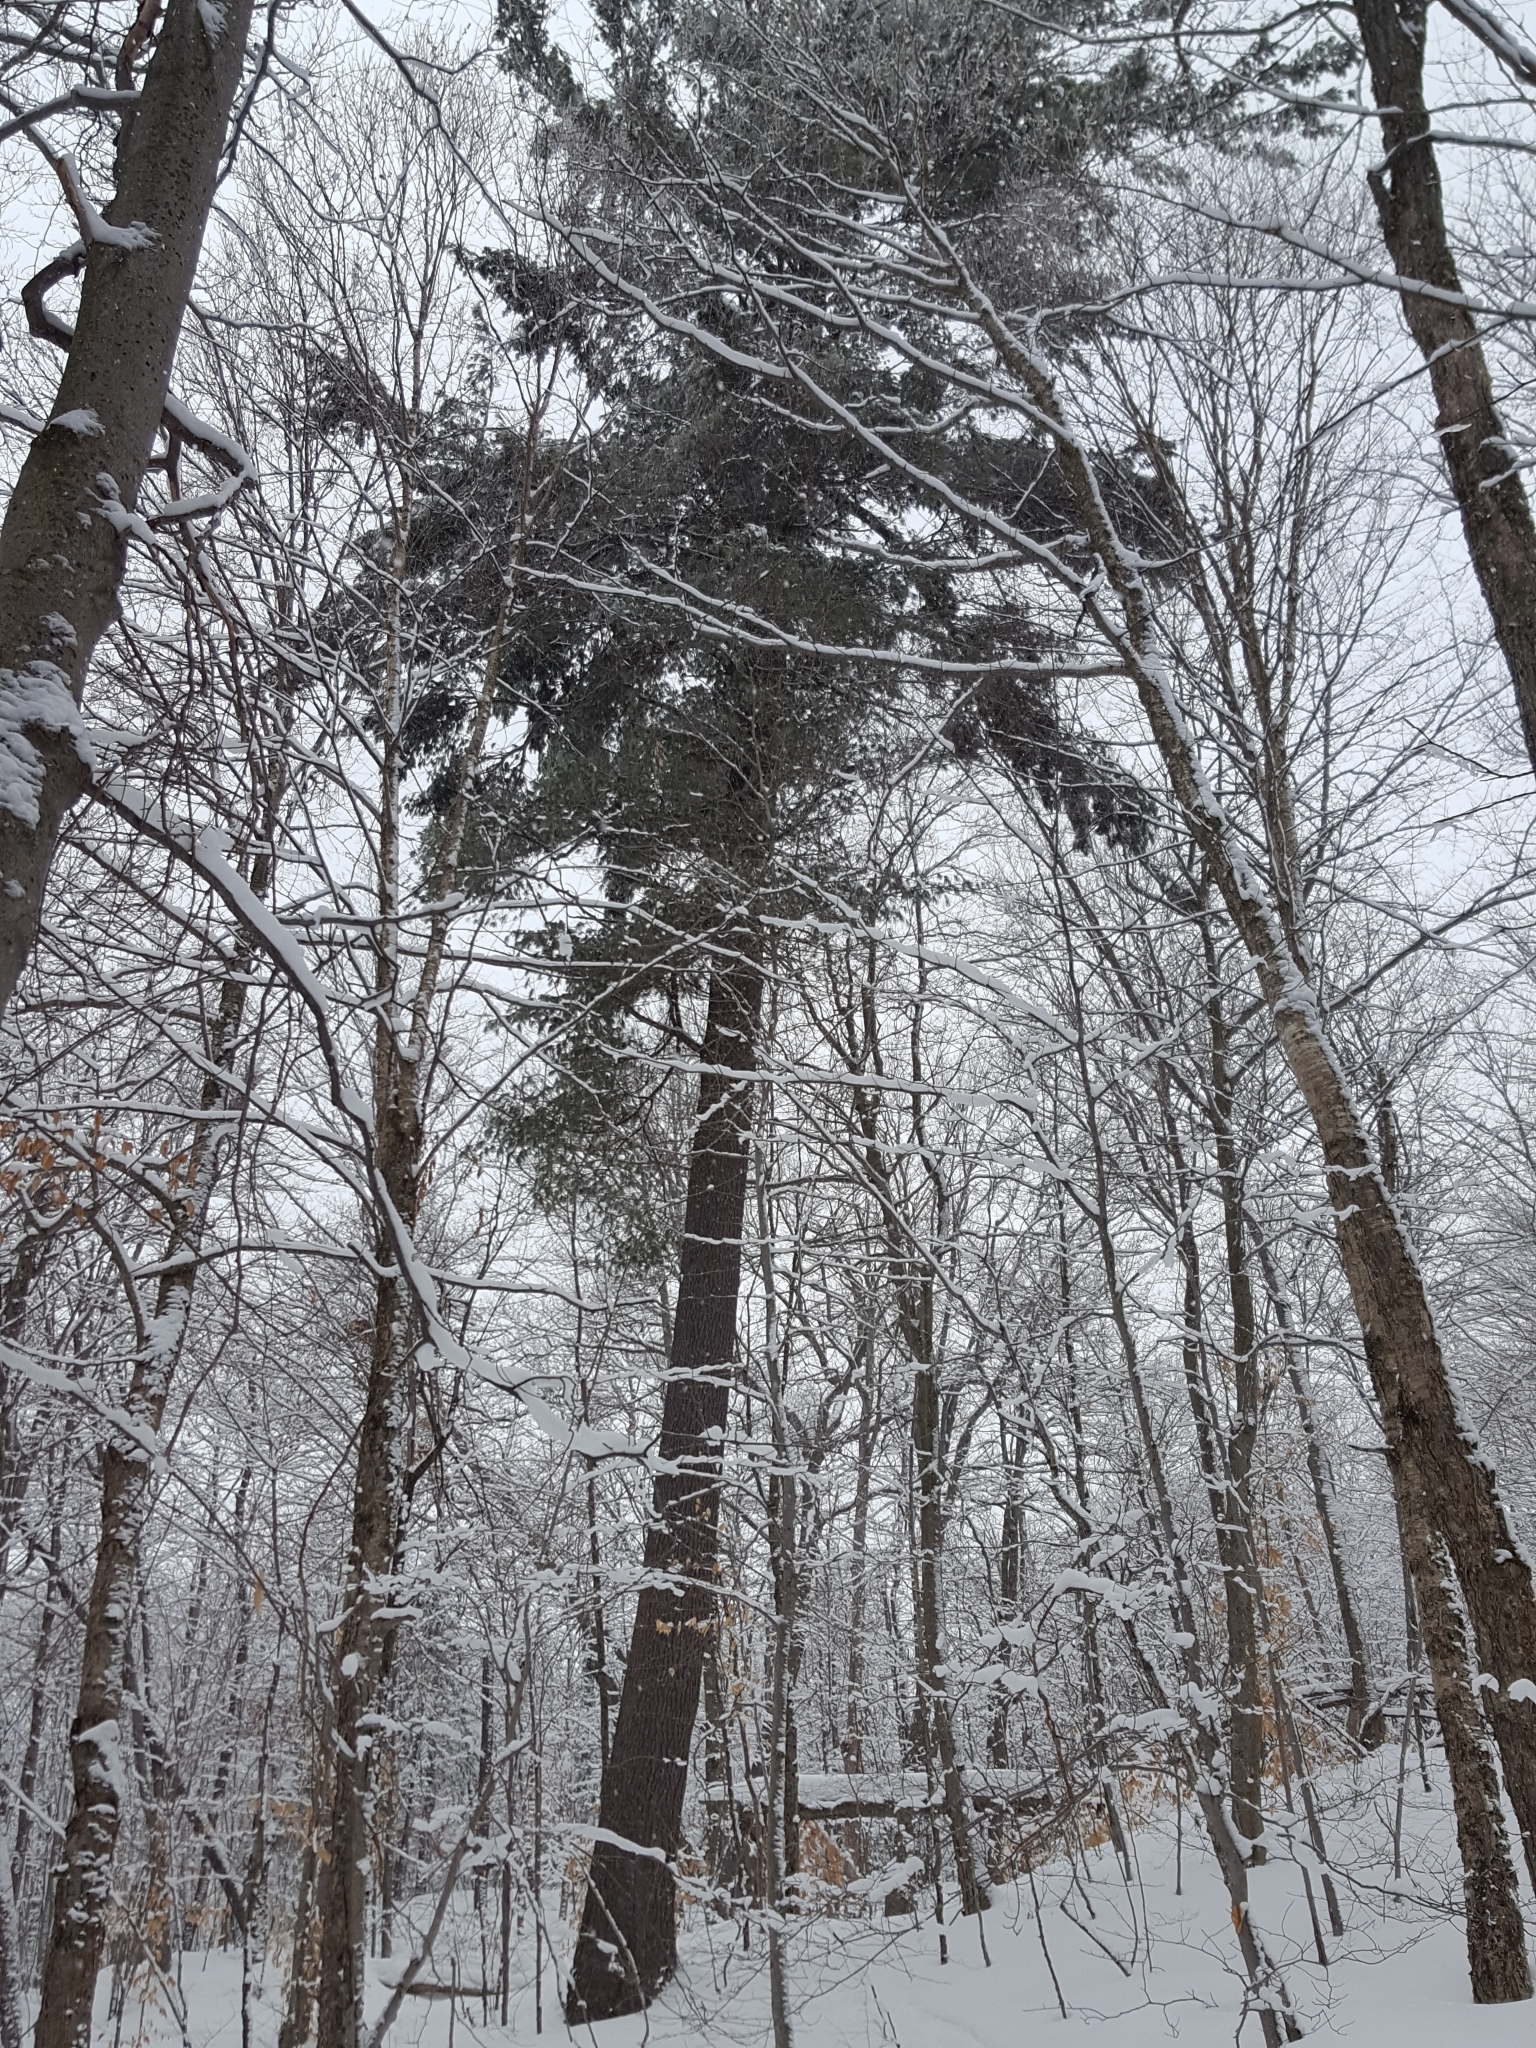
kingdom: Plantae
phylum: Tracheophyta
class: Pinopsida
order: Pinales
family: Pinaceae
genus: Pinus
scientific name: Pinus strobus
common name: Weymouth pine
